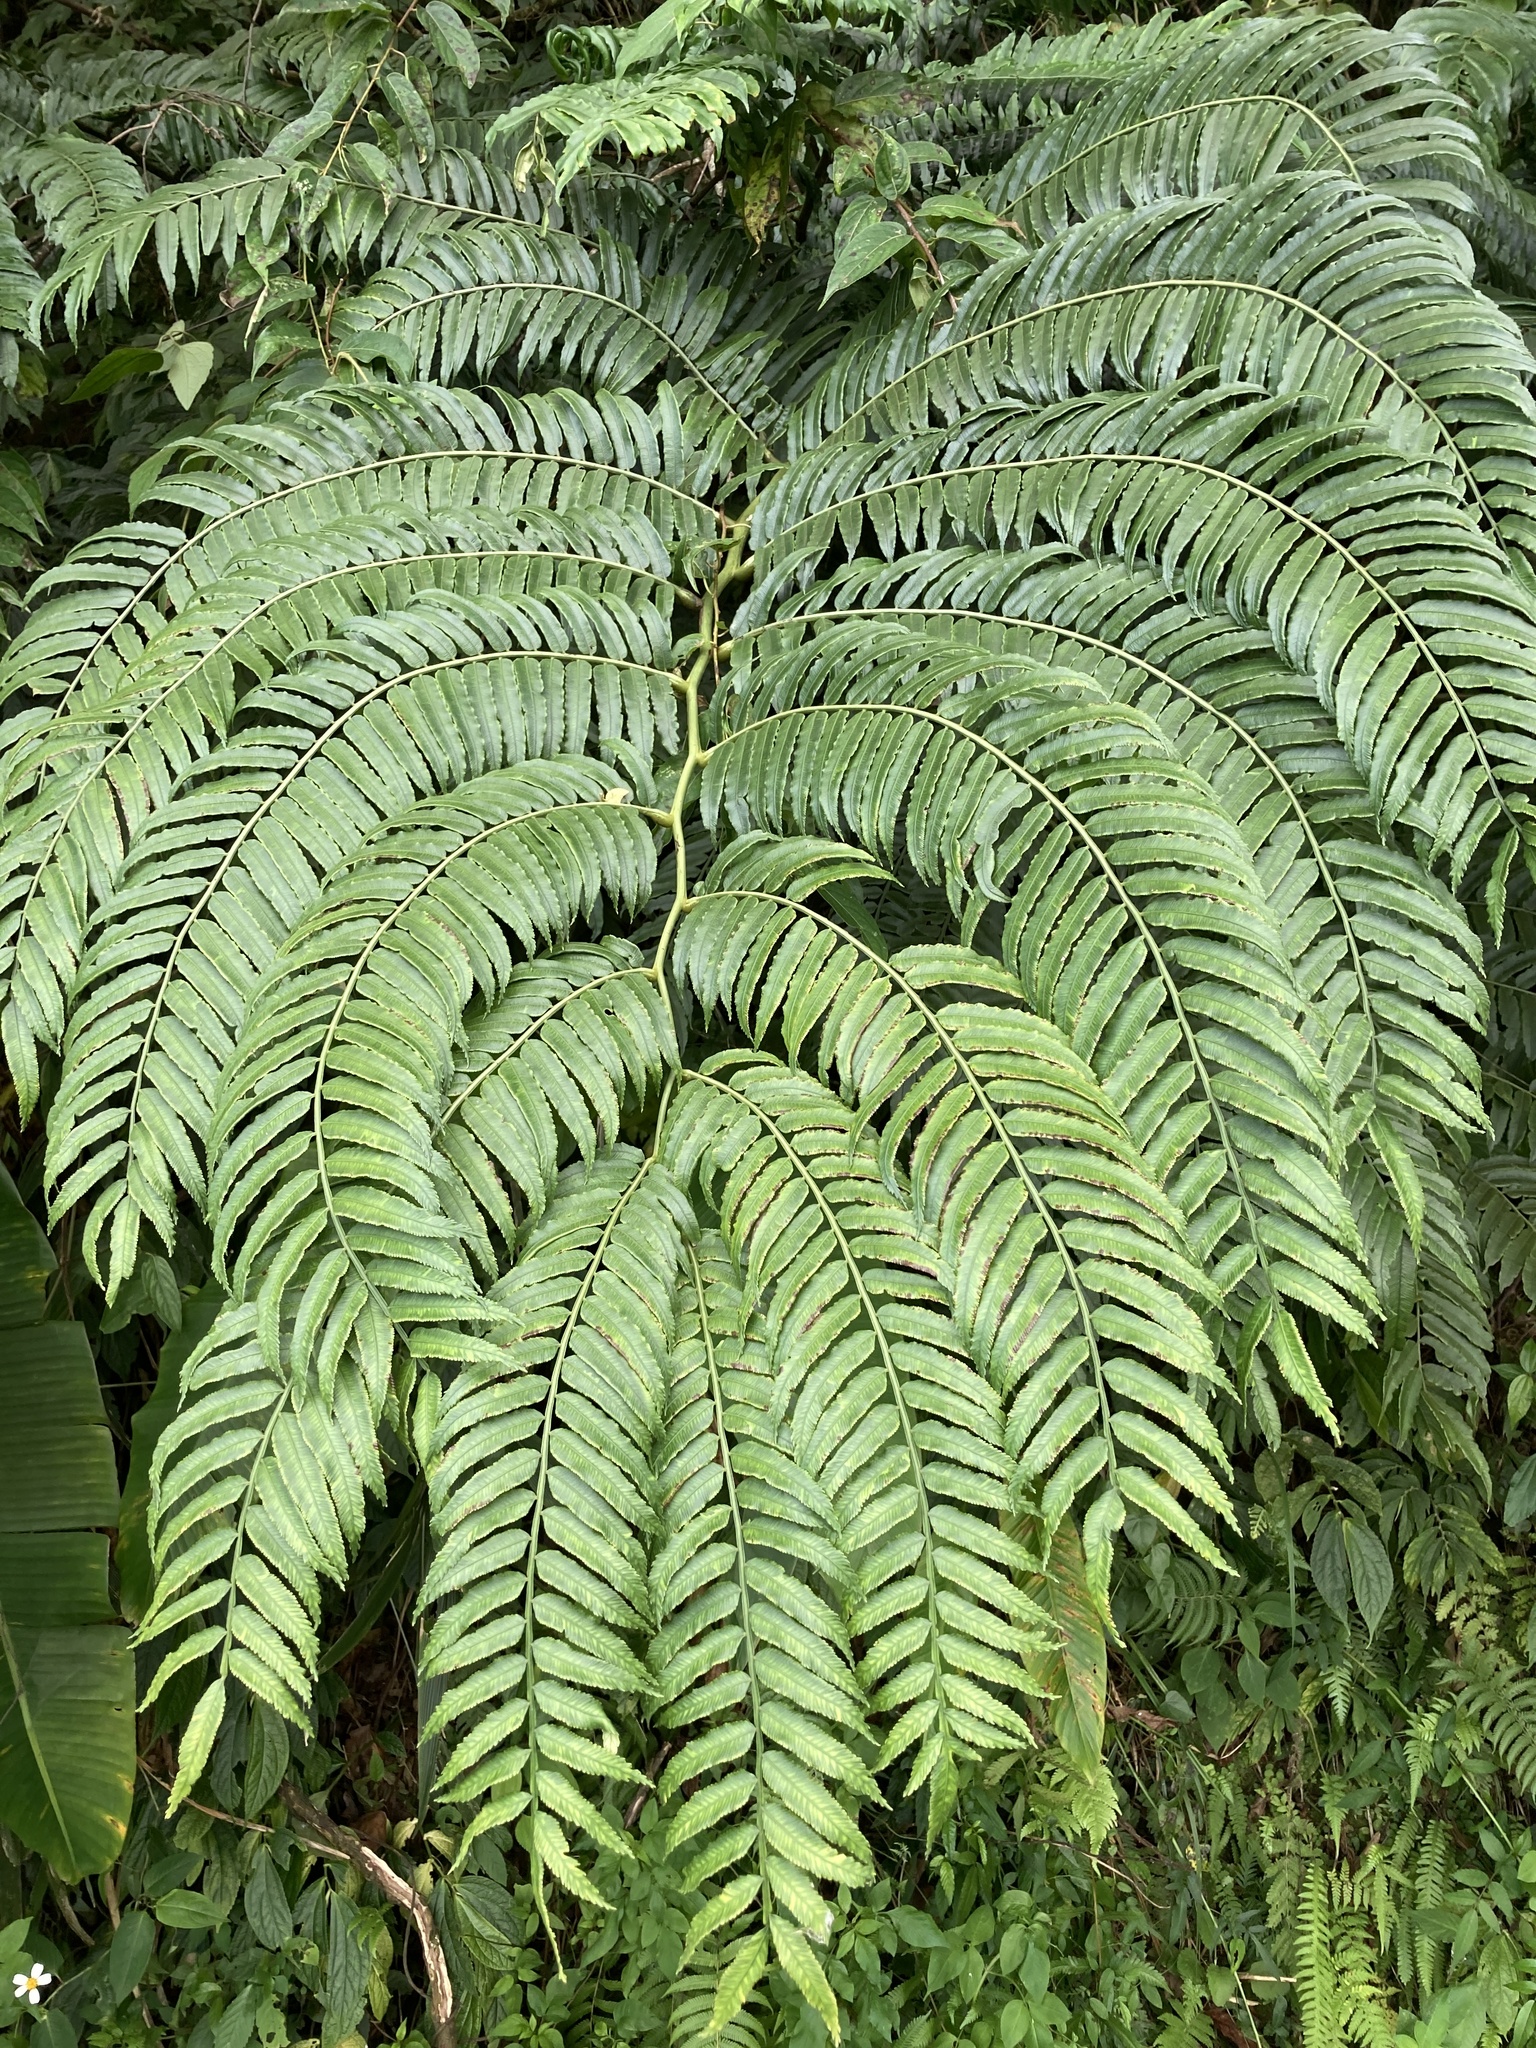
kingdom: Plantae
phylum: Tracheophyta
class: Polypodiopsida
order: Marattiales
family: Marattiaceae
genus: Angiopteris
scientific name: Angiopteris lygodiifolia
